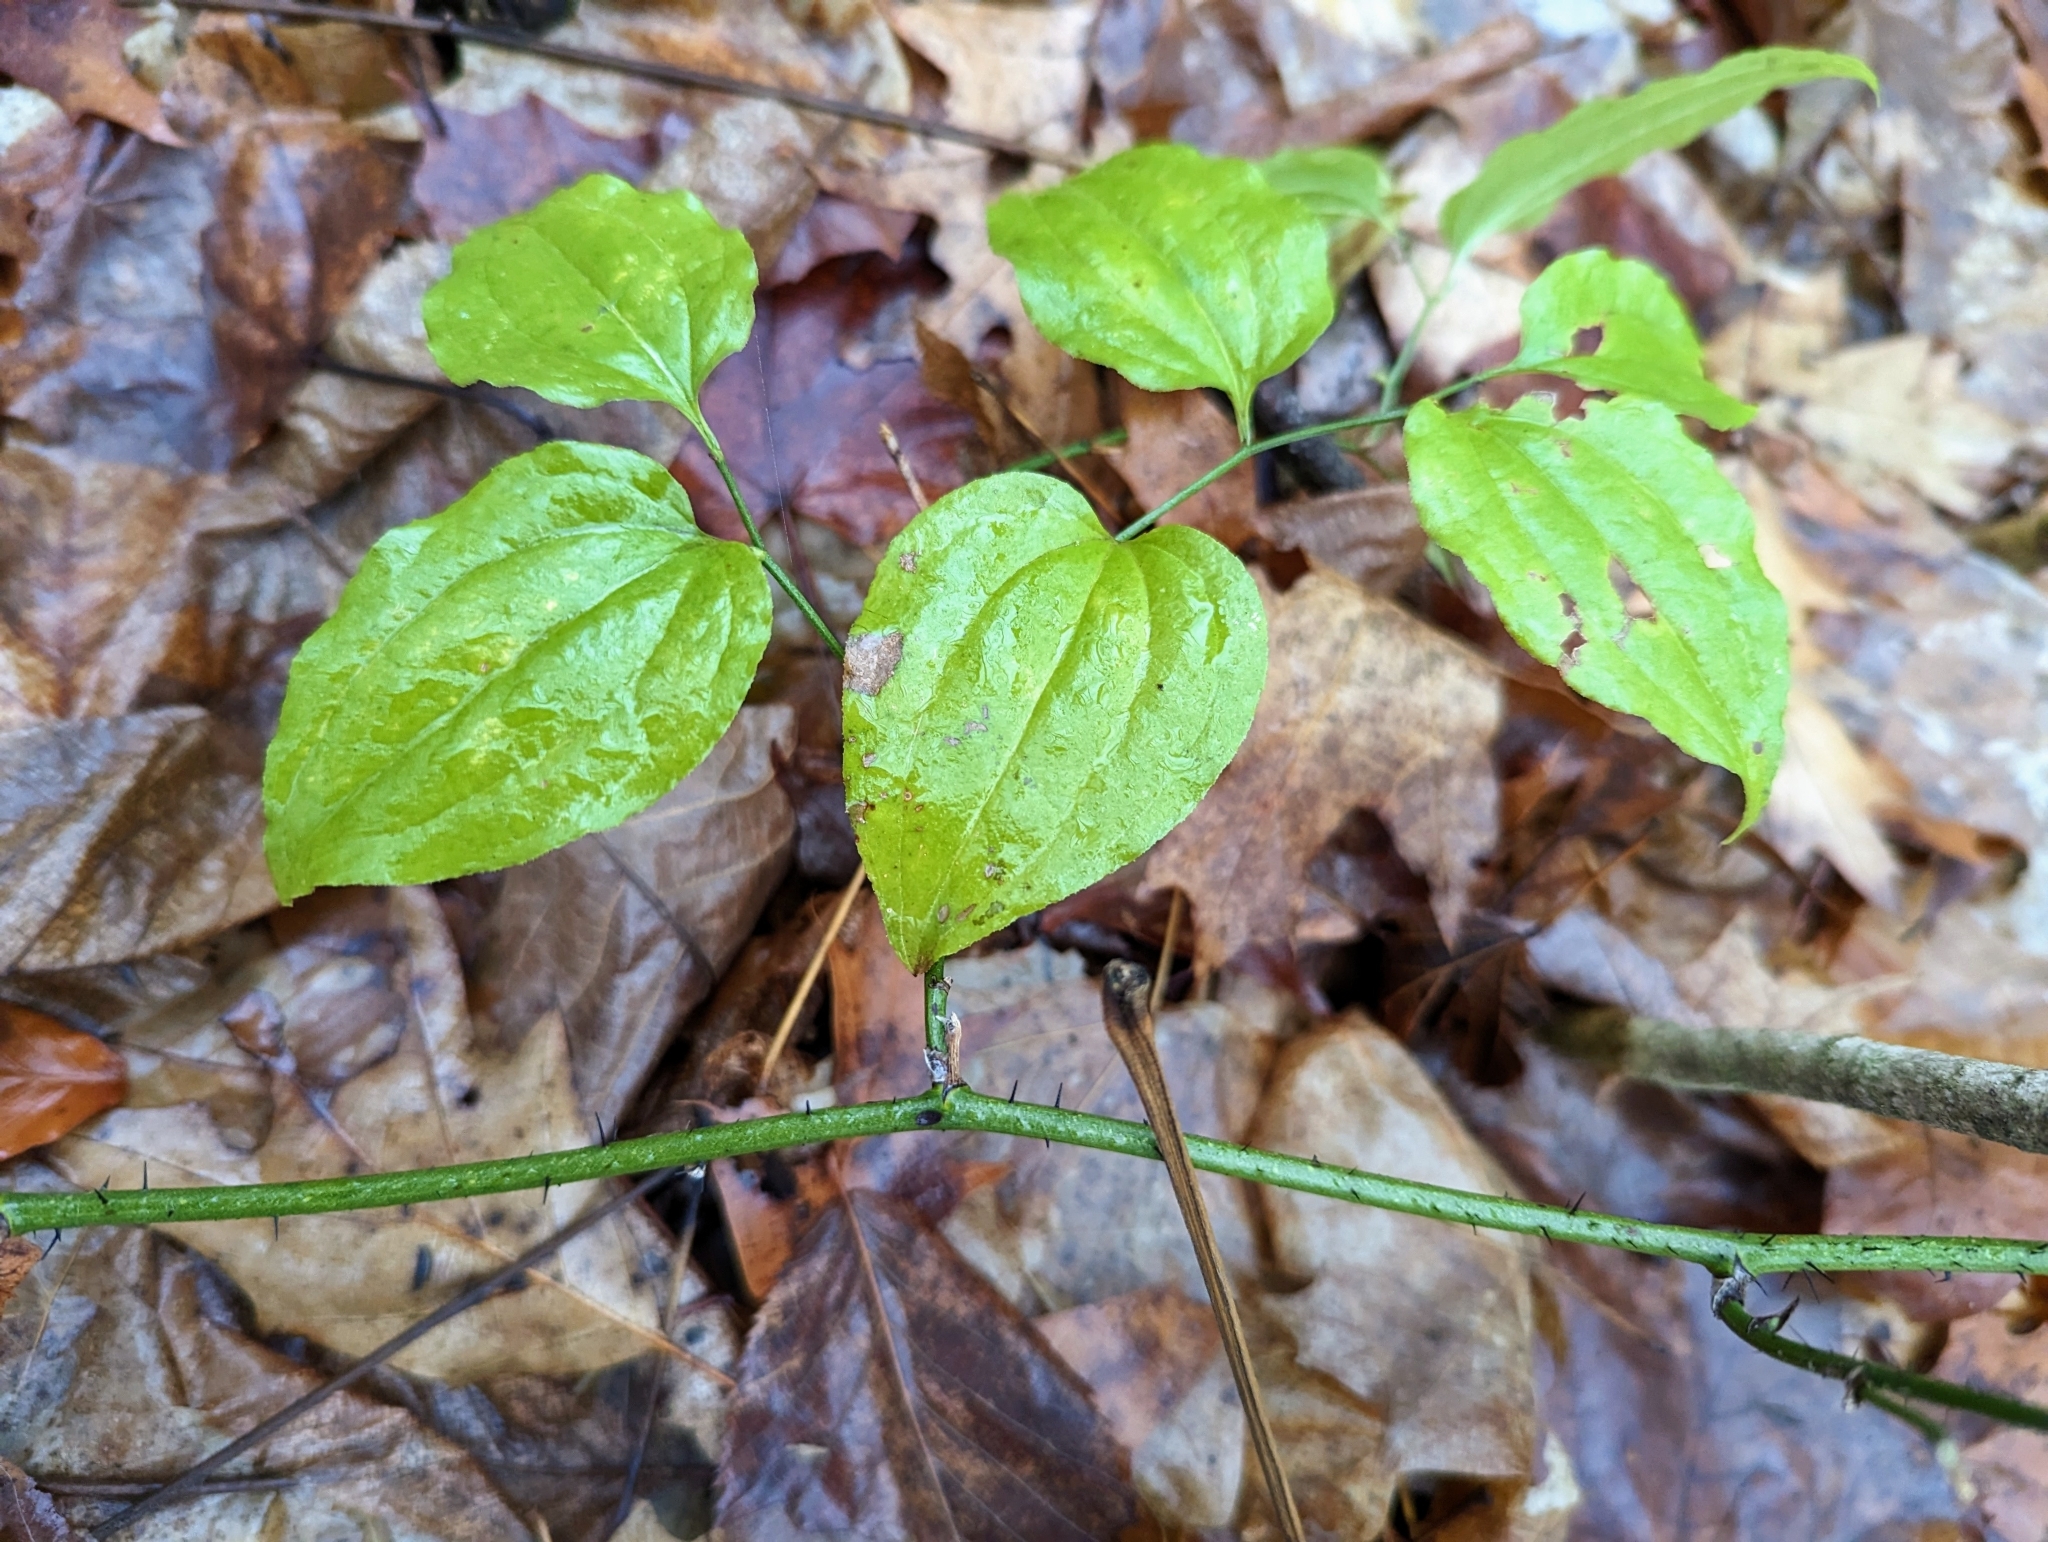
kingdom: Plantae
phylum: Tracheophyta
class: Liliopsida
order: Liliales
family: Smilacaceae
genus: Smilax
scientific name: Smilax tamnoides
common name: Hellfetter
